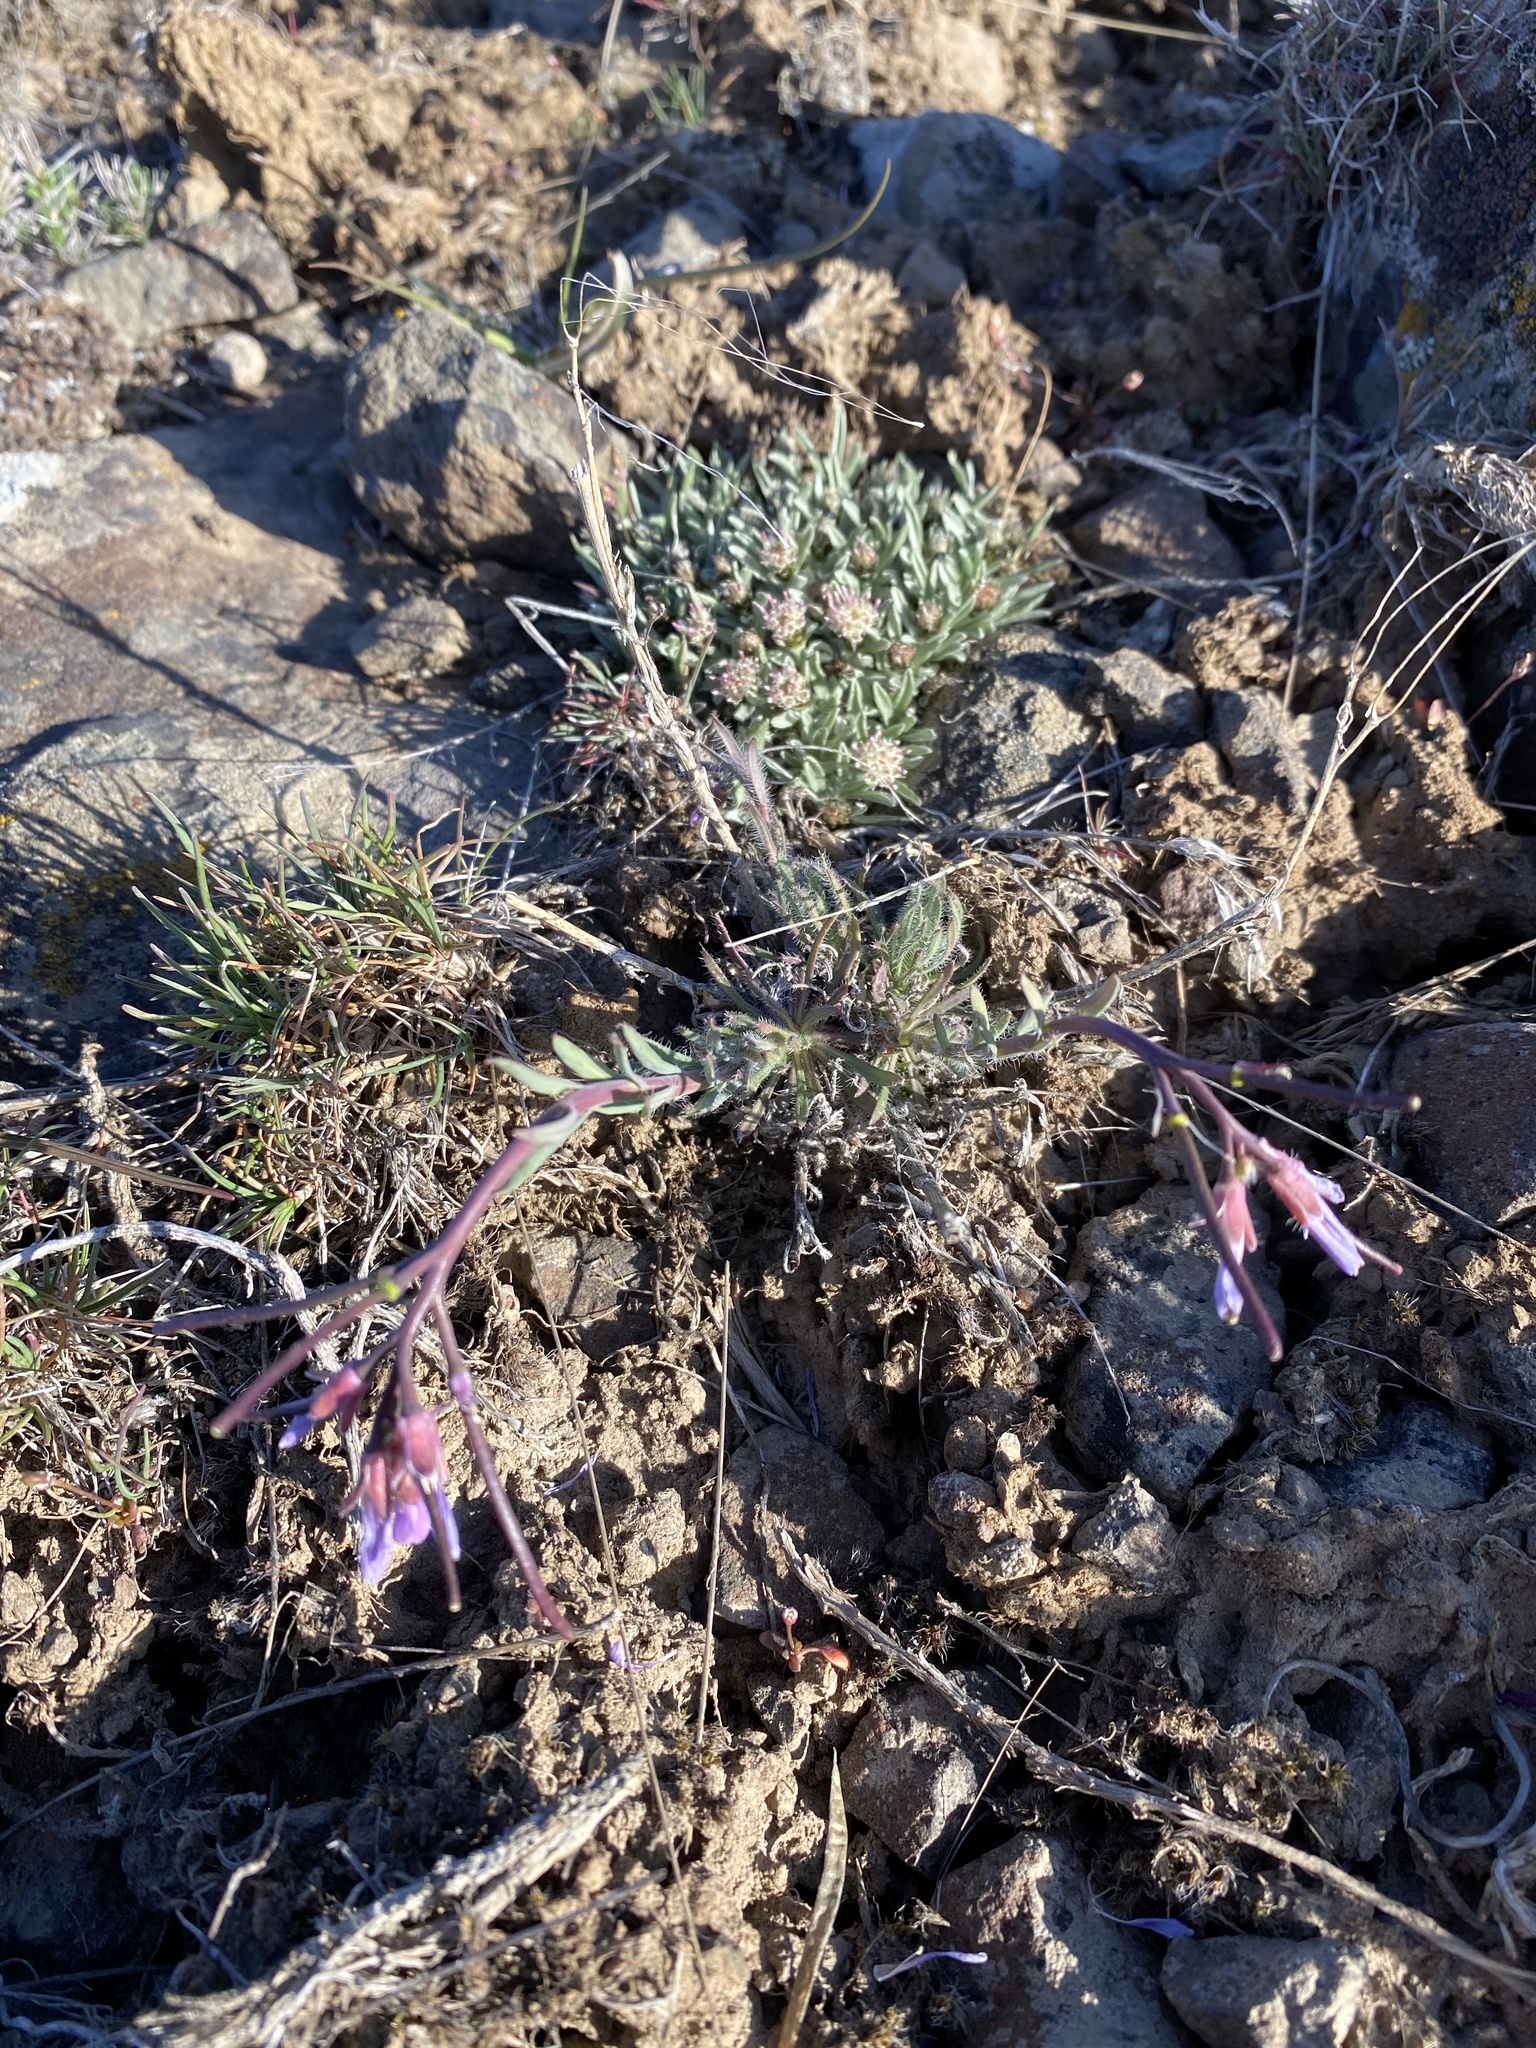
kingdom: Plantae
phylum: Tracheophyta
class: Magnoliopsida
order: Brassicales
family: Brassicaceae
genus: Boechera
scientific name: Boechera cusickii
